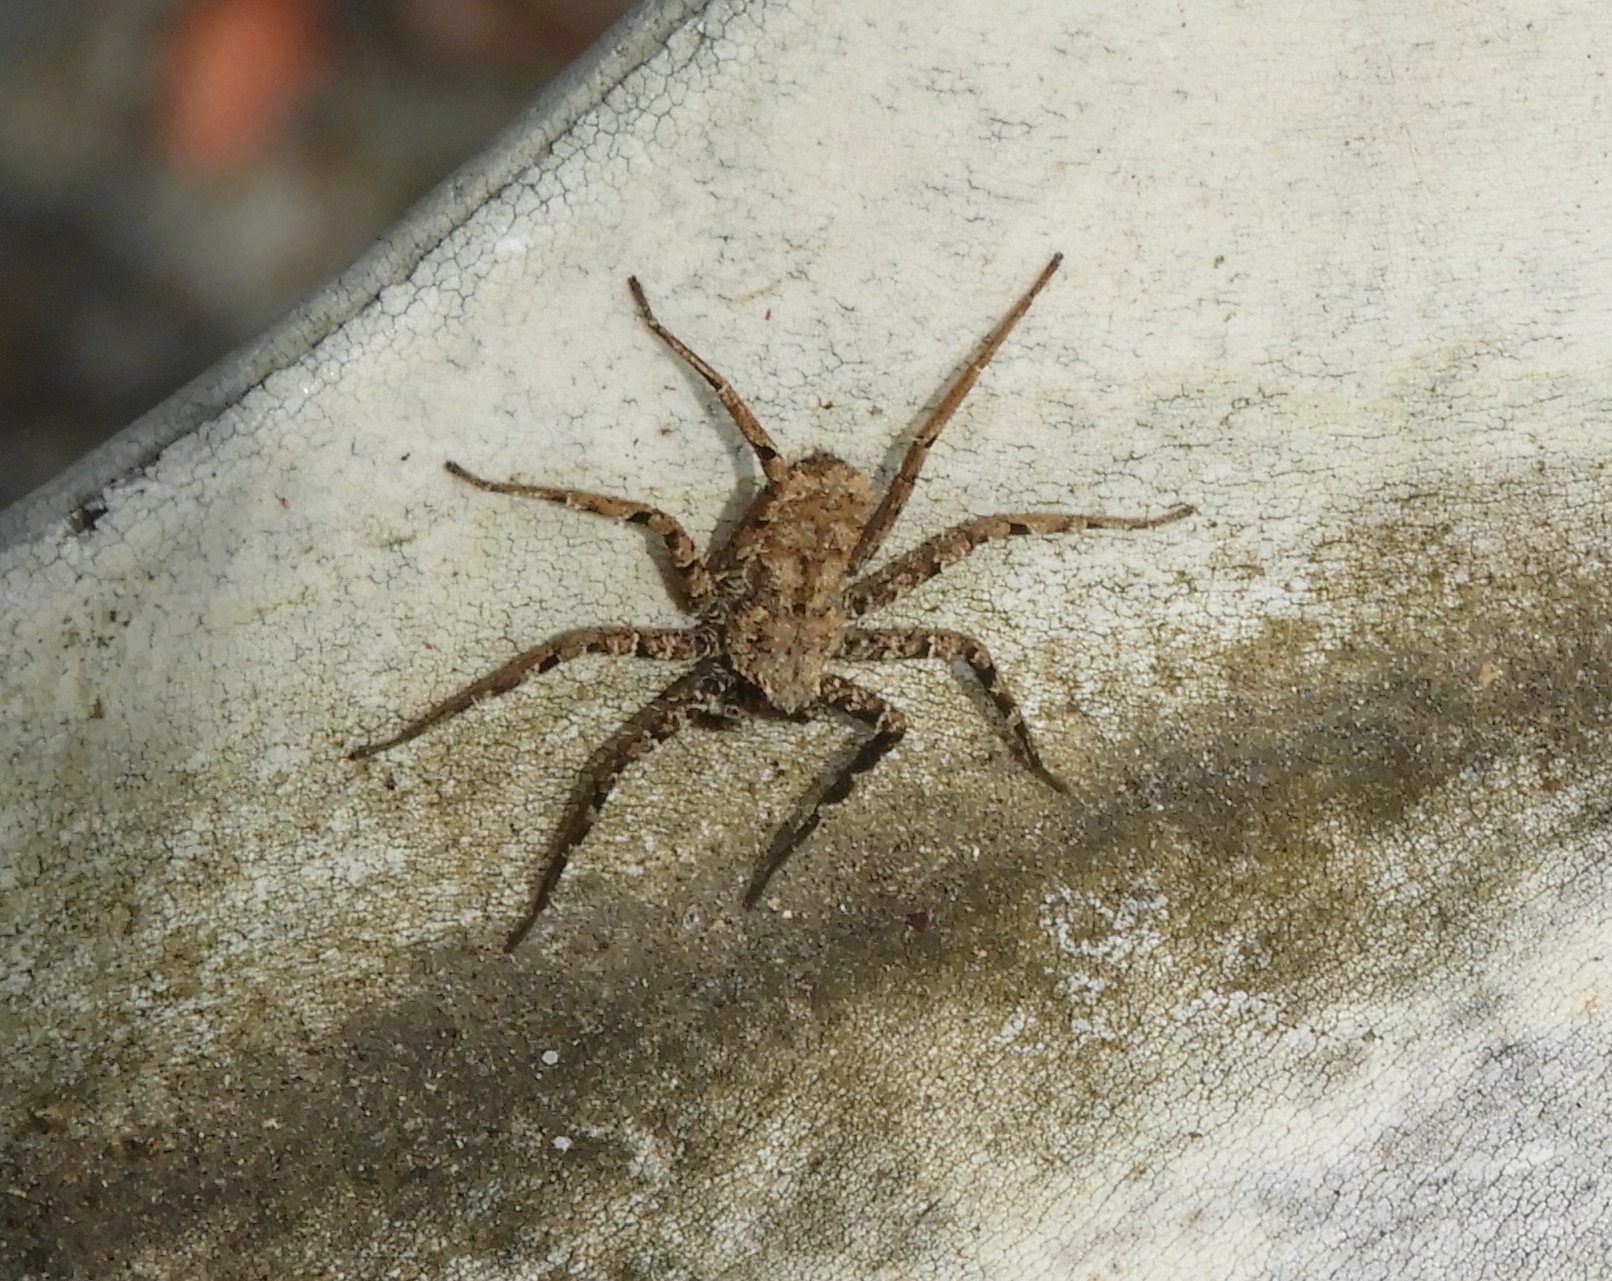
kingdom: Animalia
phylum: Arthropoda
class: Arachnida
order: Araneae
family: Selenopidae
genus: Selenops
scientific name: Selenops
